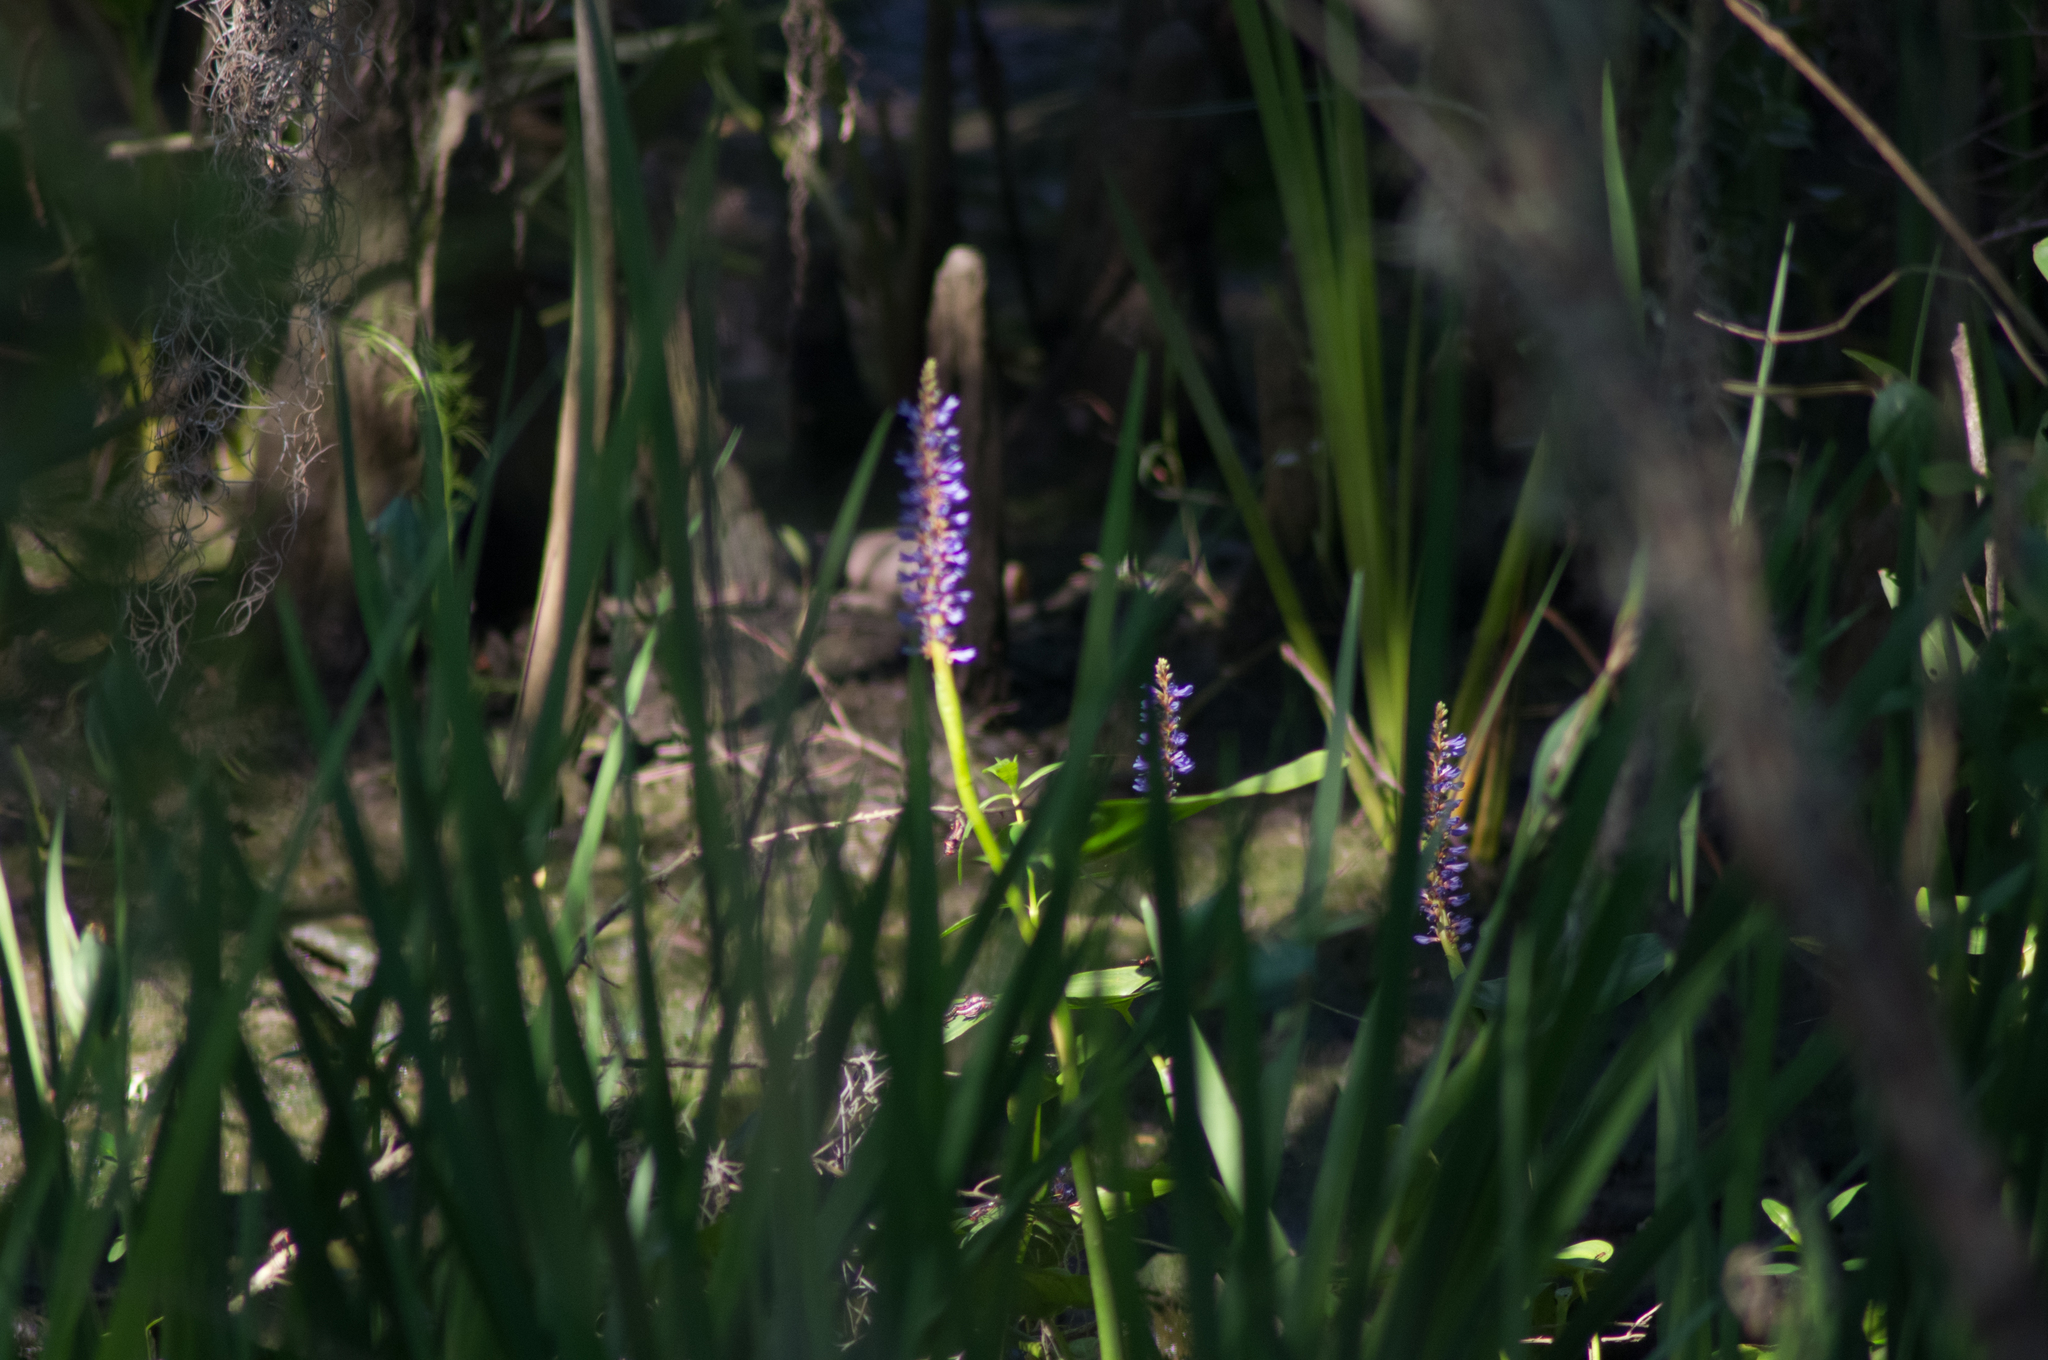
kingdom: Plantae
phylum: Tracheophyta
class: Liliopsida
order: Commelinales
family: Pontederiaceae
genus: Pontederia
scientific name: Pontederia cordata
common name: Pickerelweed
